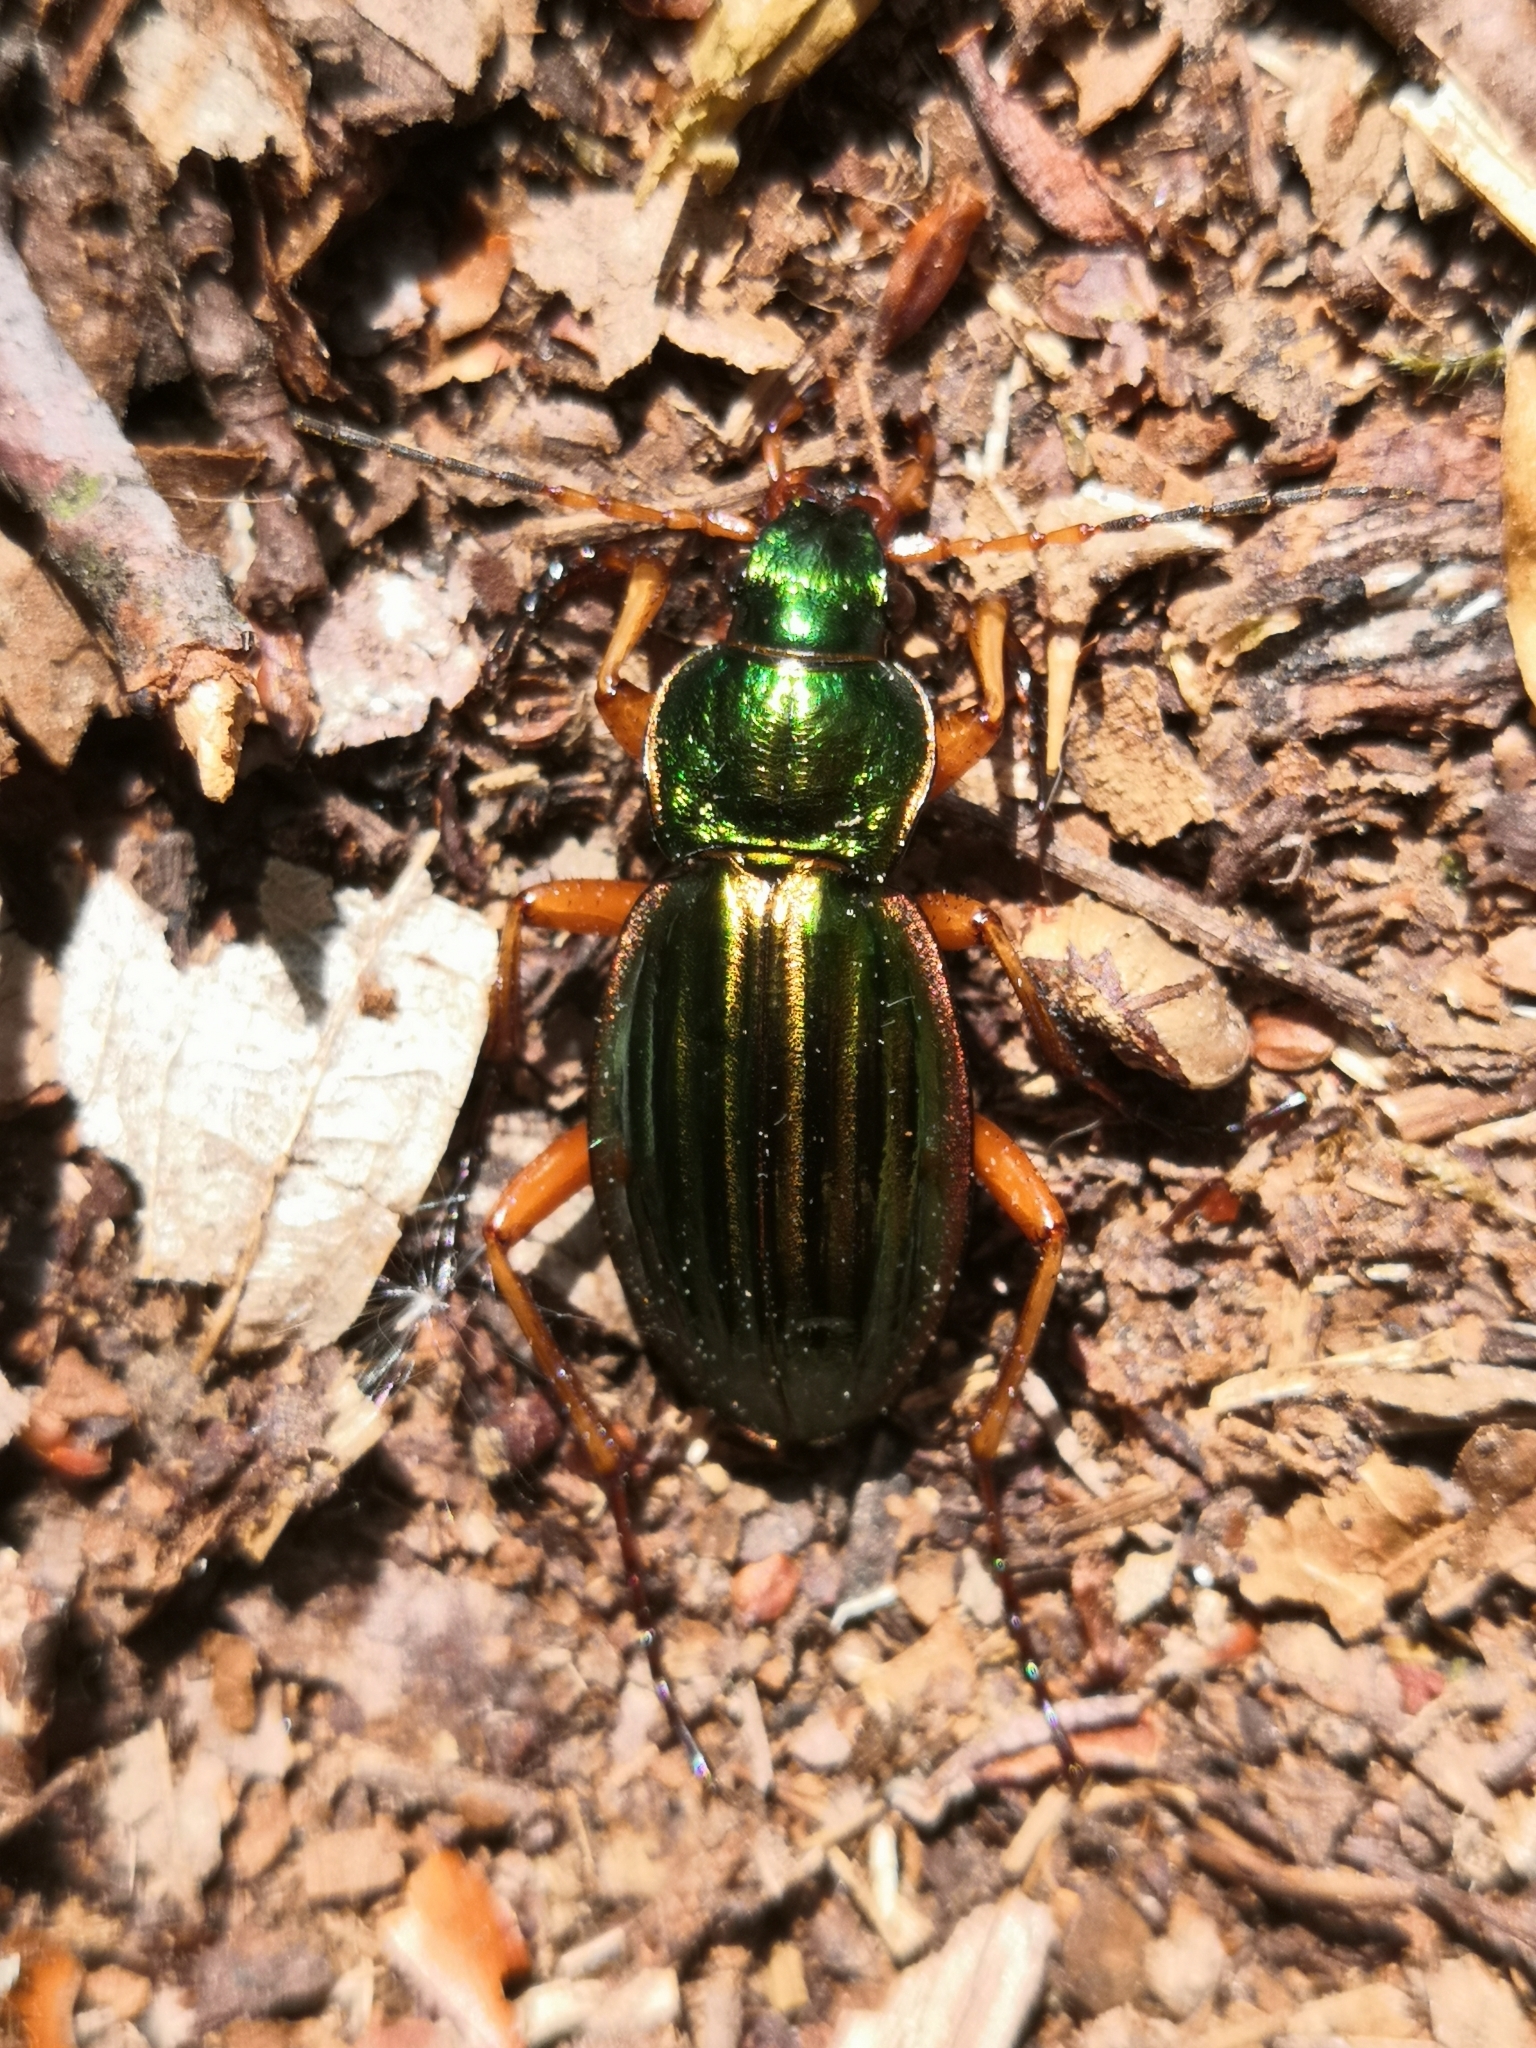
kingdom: Animalia
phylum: Arthropoda
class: Insecta
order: Coleoptera
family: Carabidae
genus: Carabus
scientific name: Carabus auratus
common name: Golden ground beetle
